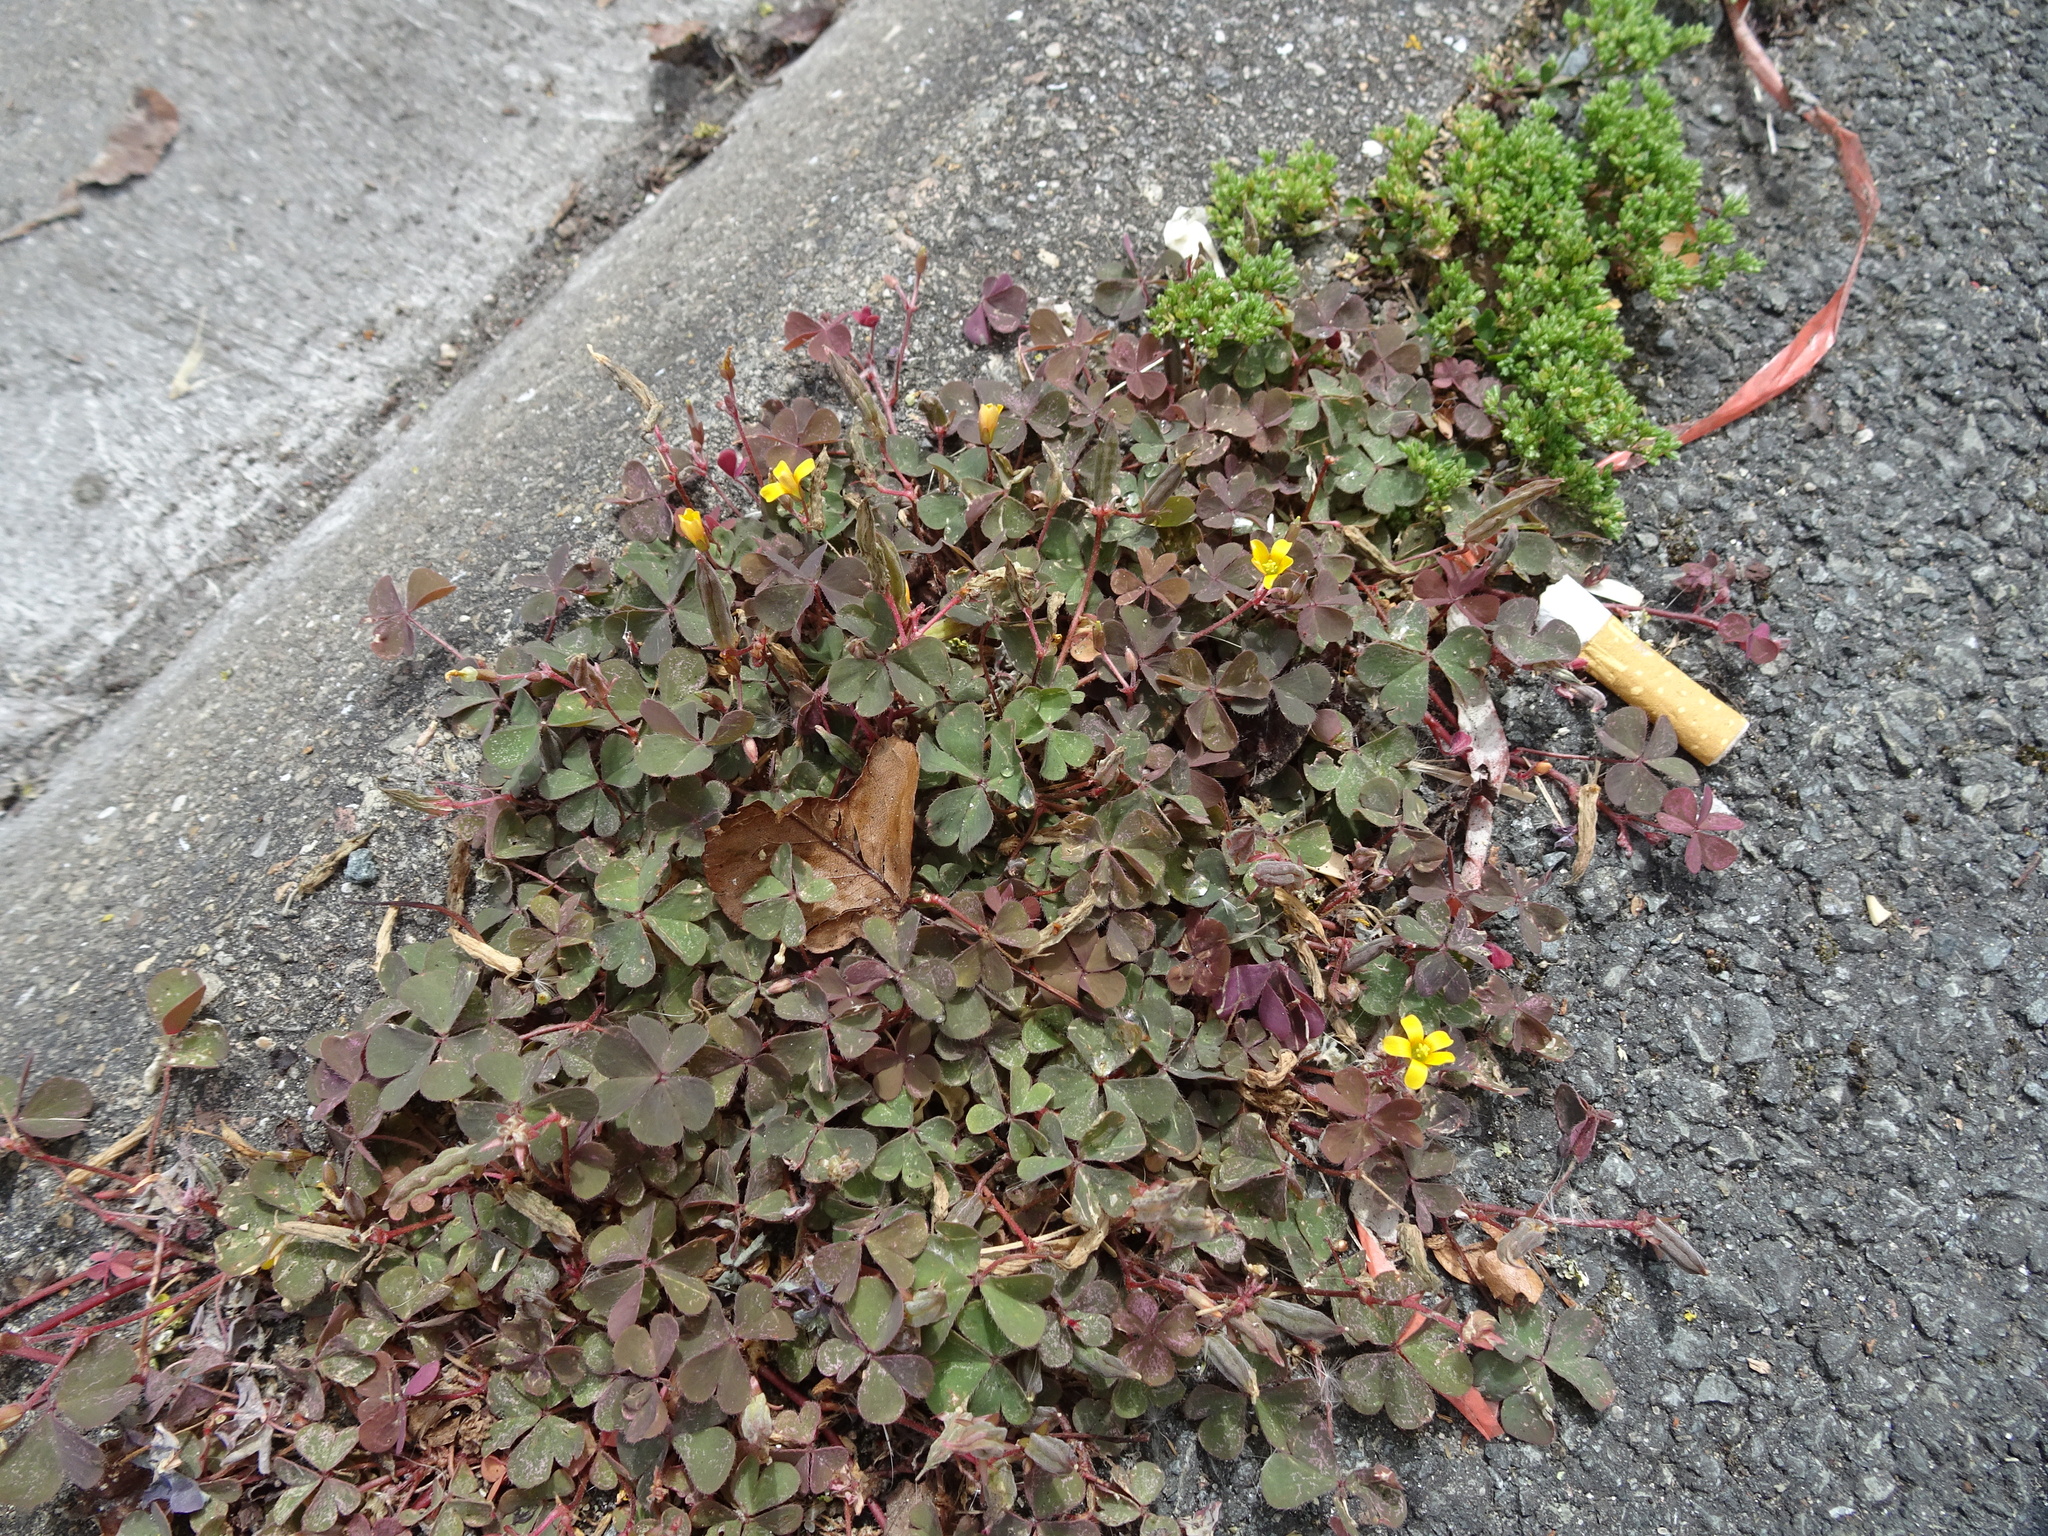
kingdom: Plantae
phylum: Tracheophyta
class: Magnoliopsida
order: Oxalidales
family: Oxalidaceae
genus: Oxalis
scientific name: Oxalis corniculata
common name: Procumbent yellow-sorrel
